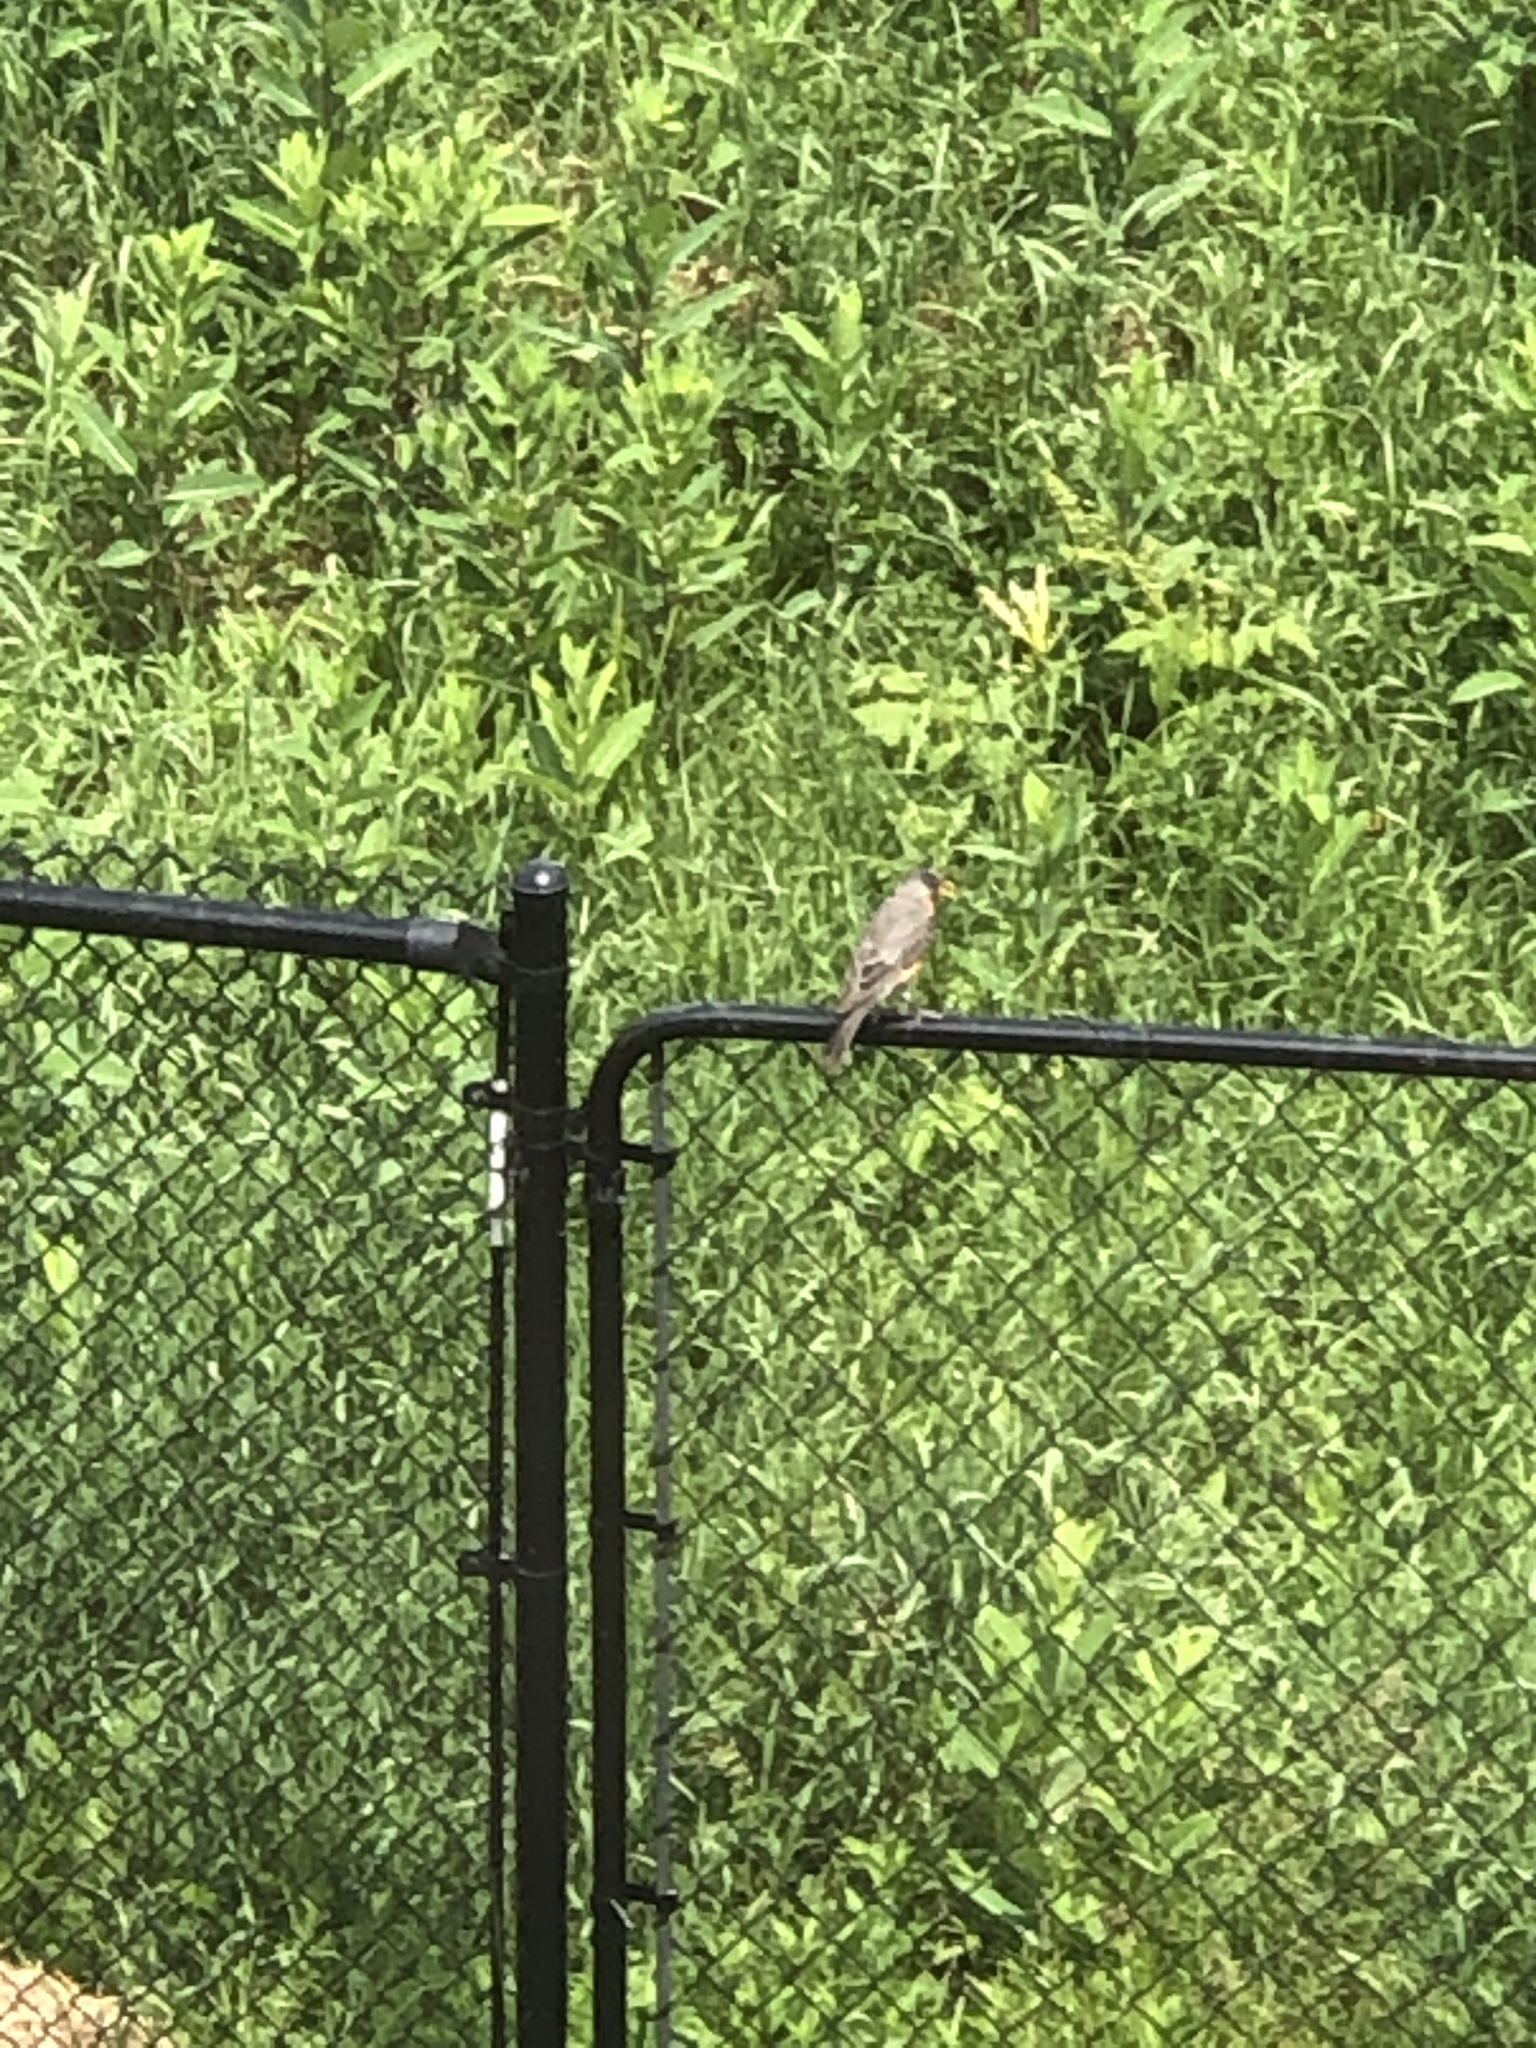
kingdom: Animalia
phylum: Chordata
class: Aves
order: Passeriformes
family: Turdidae
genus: Turdus
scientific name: Turdus migratorius
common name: American robin
